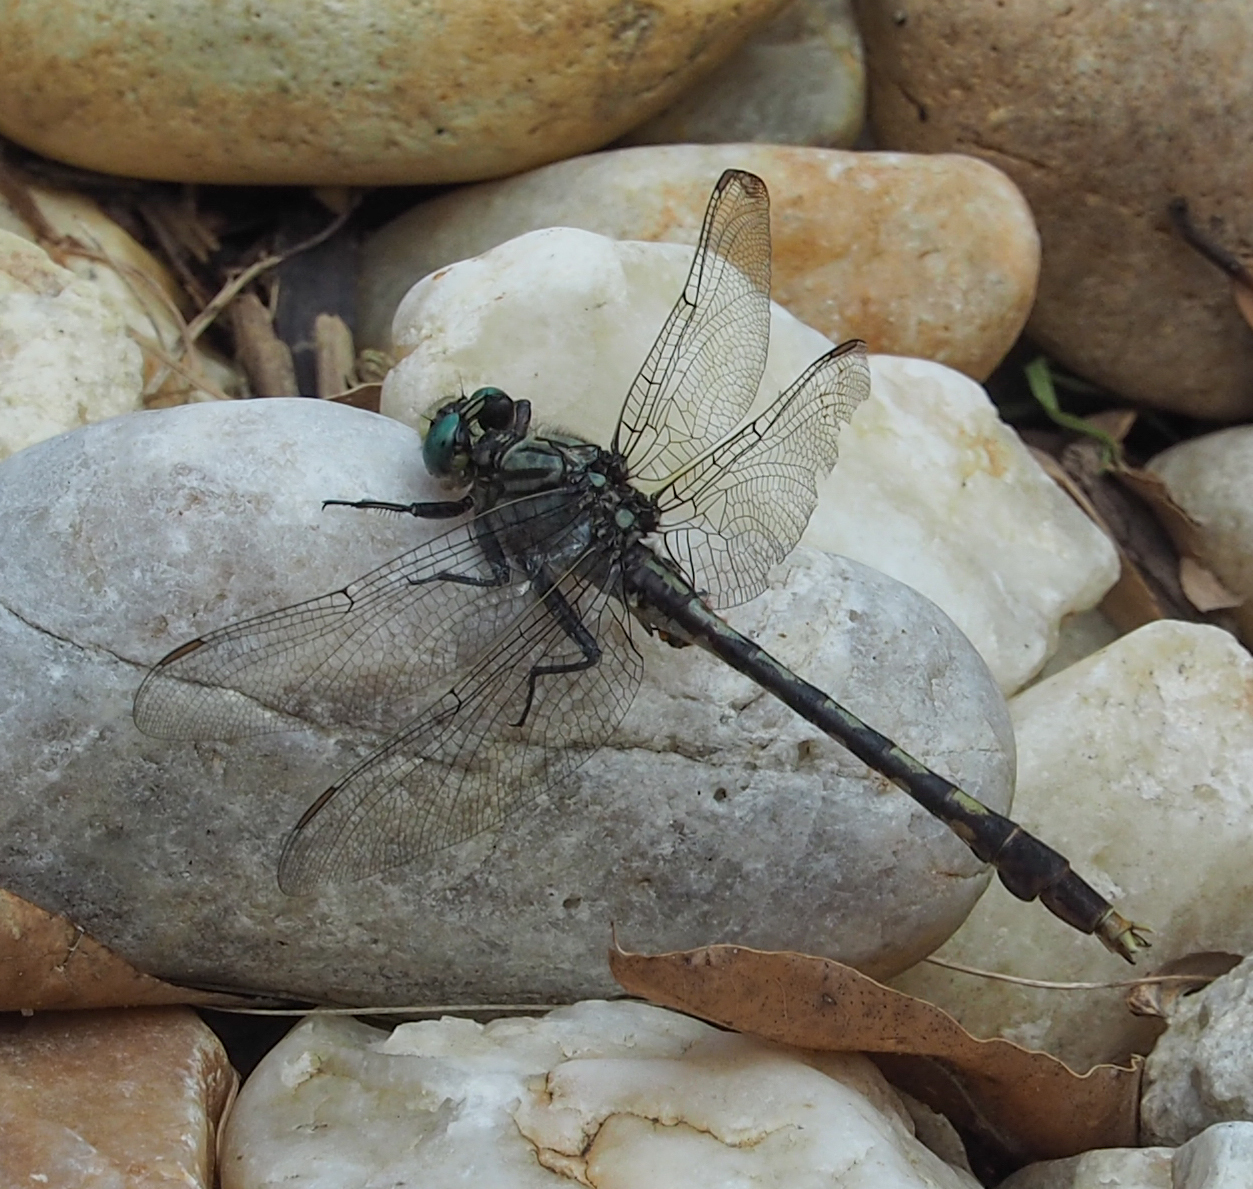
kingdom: Animalia
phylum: Arthropoda
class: Insecta
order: Odonata
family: Gomphidae
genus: Arigomphus
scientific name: Arigomphus villosipes
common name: Unicorn clubtail
